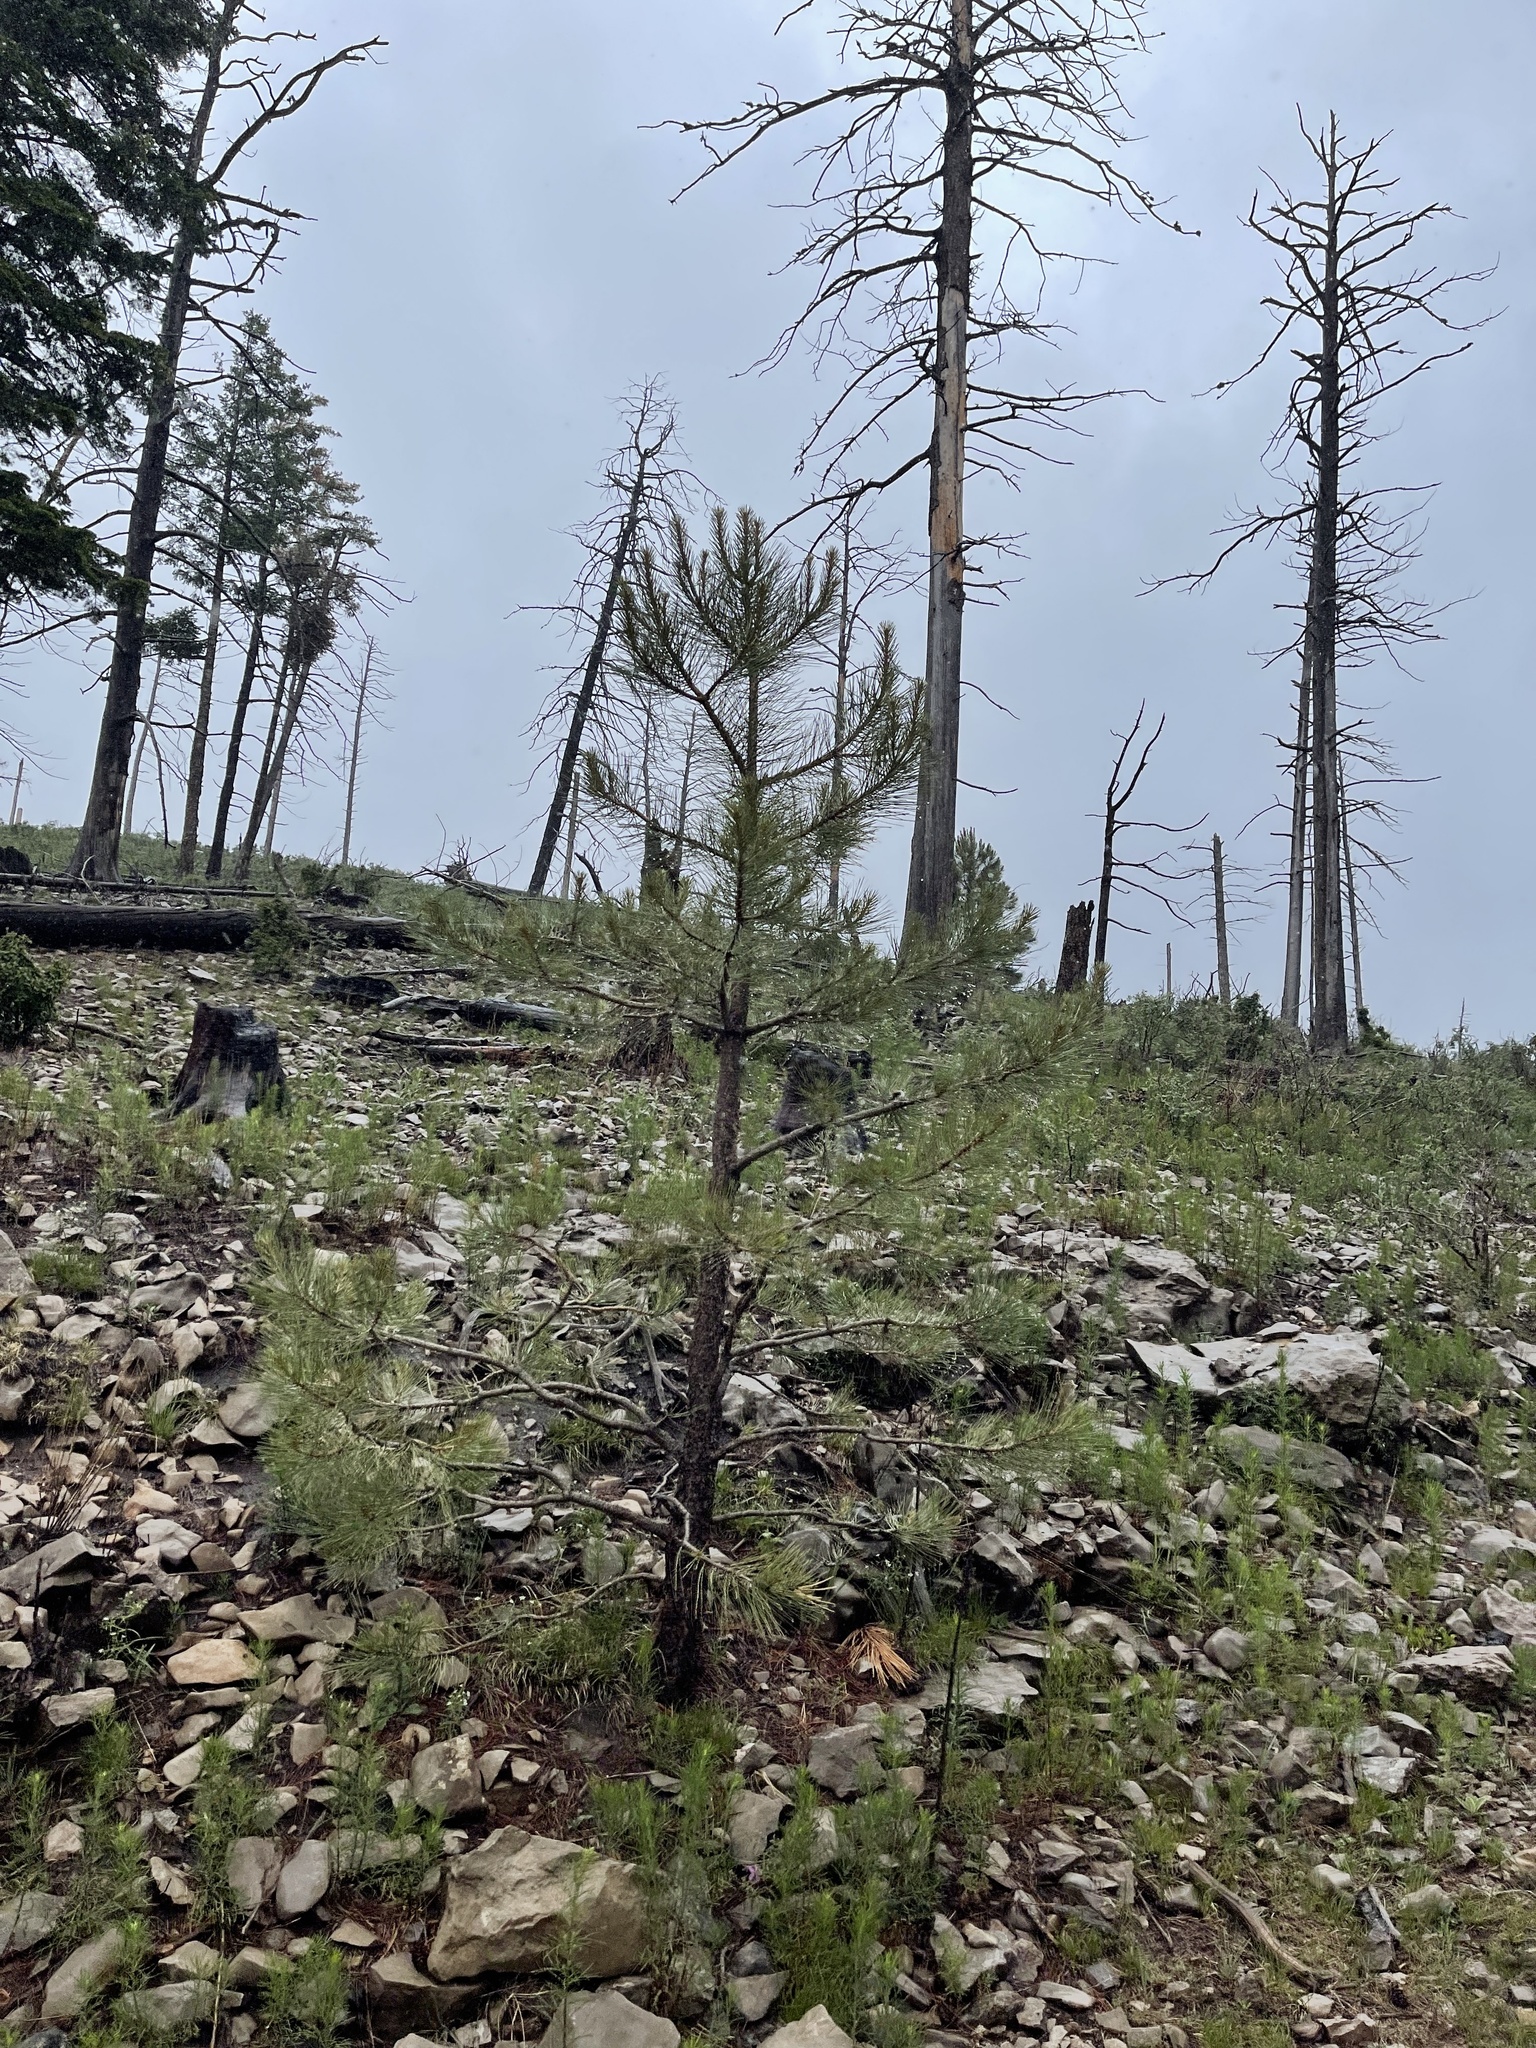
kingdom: Plantae
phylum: Tracheophyta
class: Pinopsida
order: Pinales
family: Pinaceae
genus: Pinus
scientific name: Pinus strobiformis
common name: Southwestern white pine
